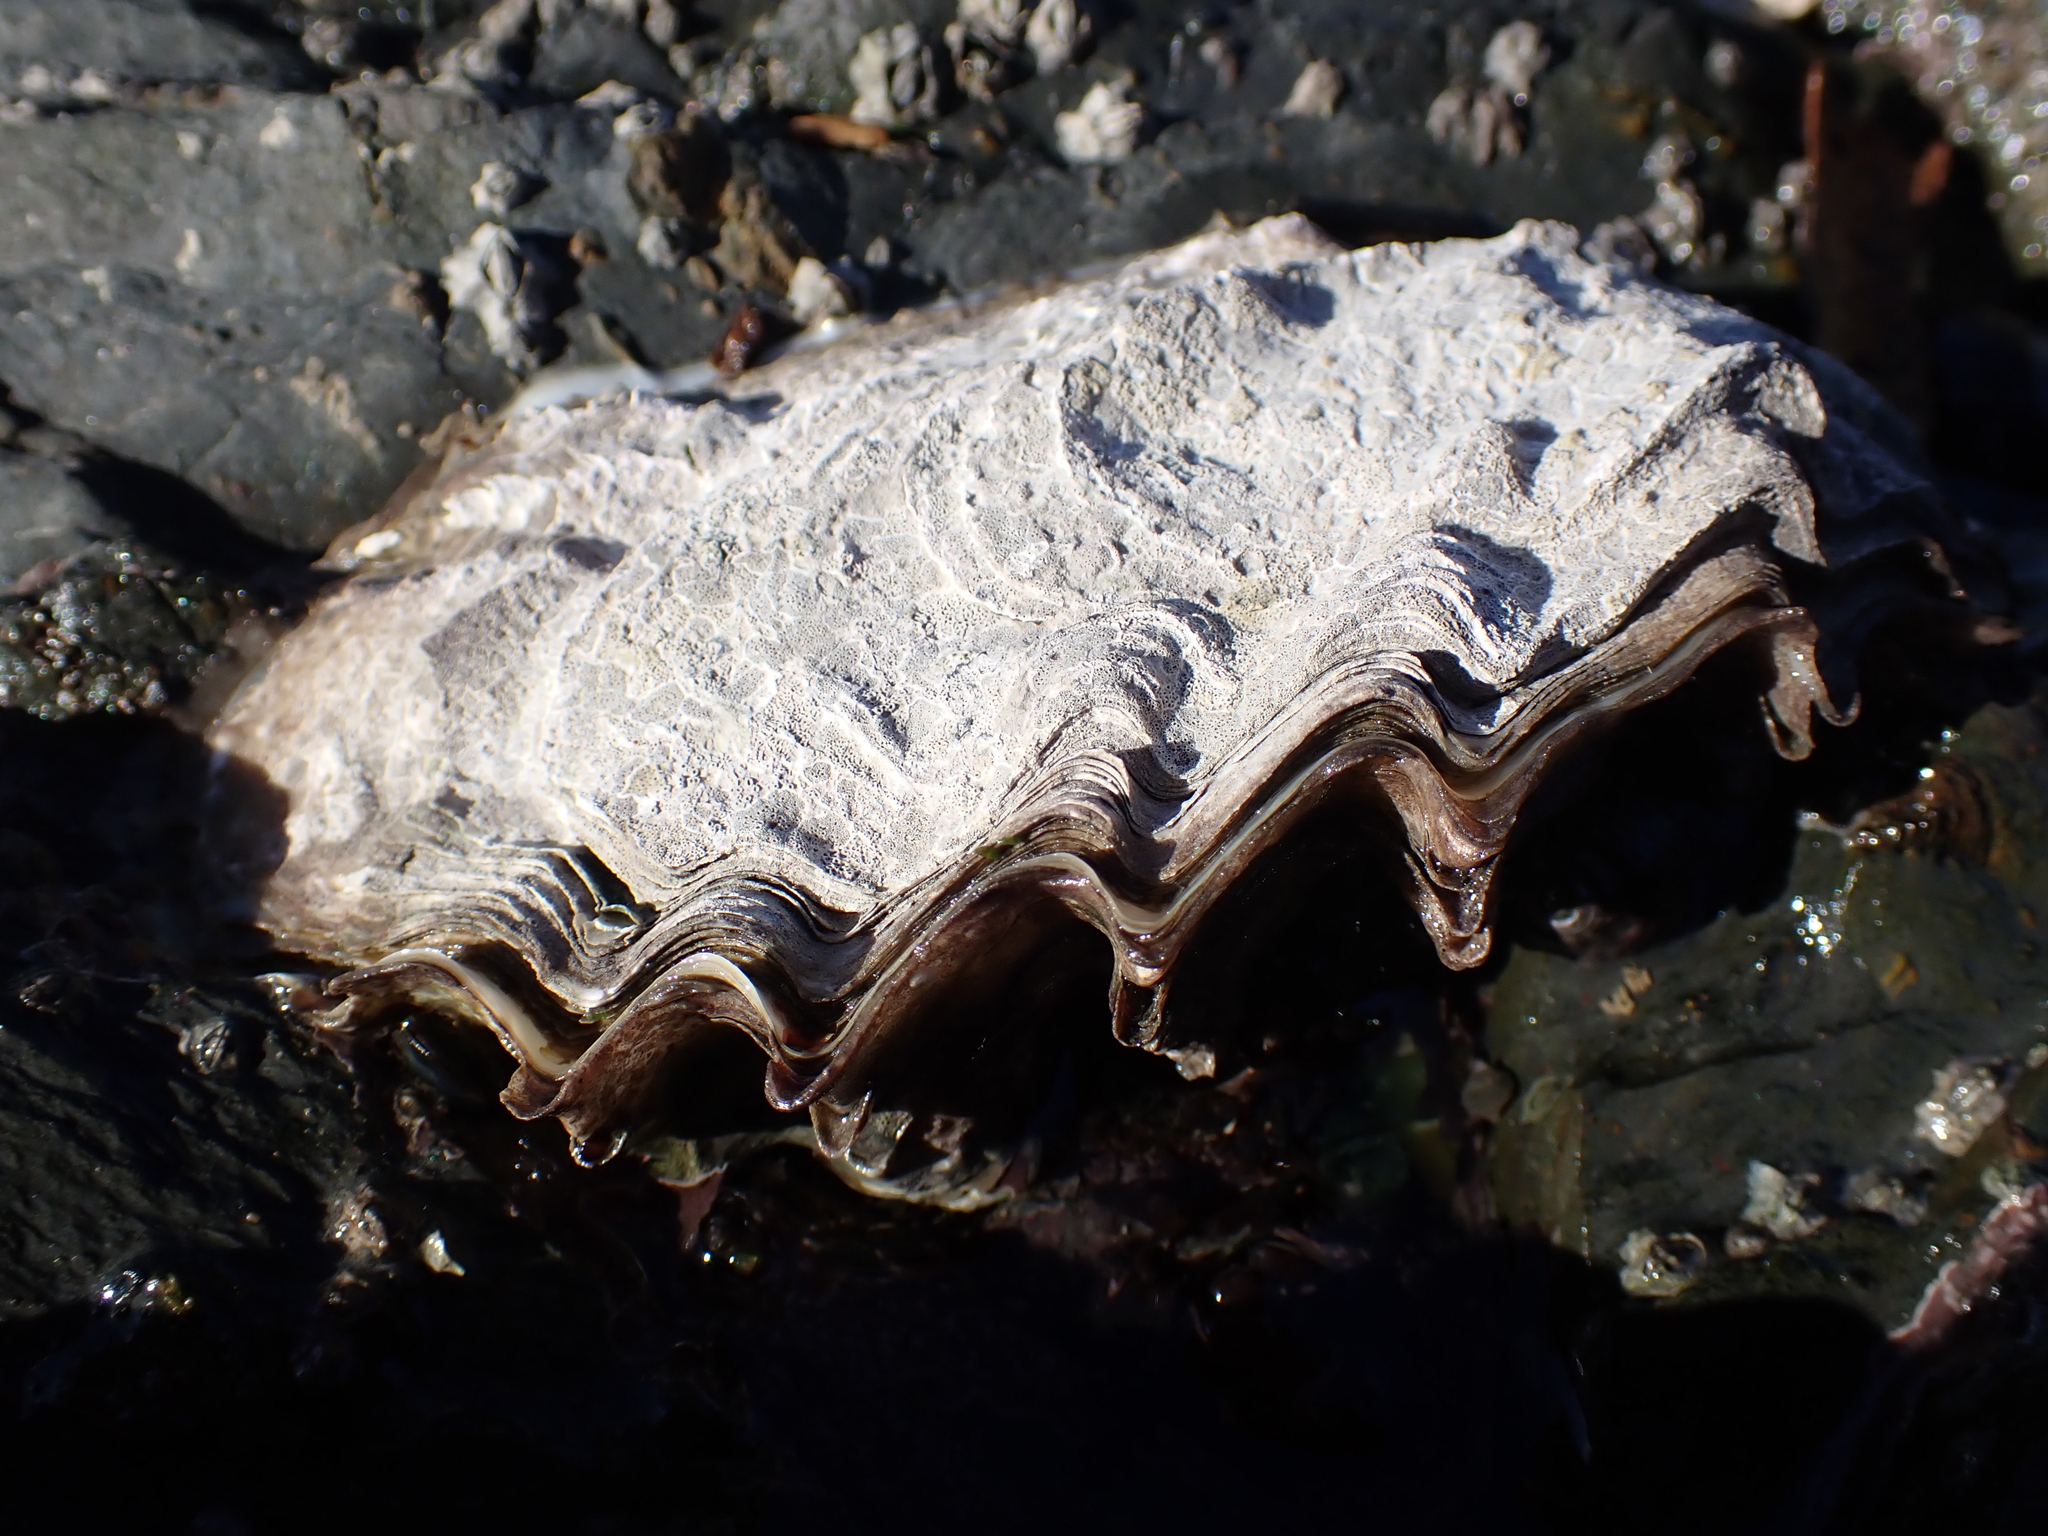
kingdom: Animalia
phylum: Mollusca
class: Bivalvia
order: Ostreida
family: Ostreidae
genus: Magallana
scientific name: Magallana gigas
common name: Pacific oyster
